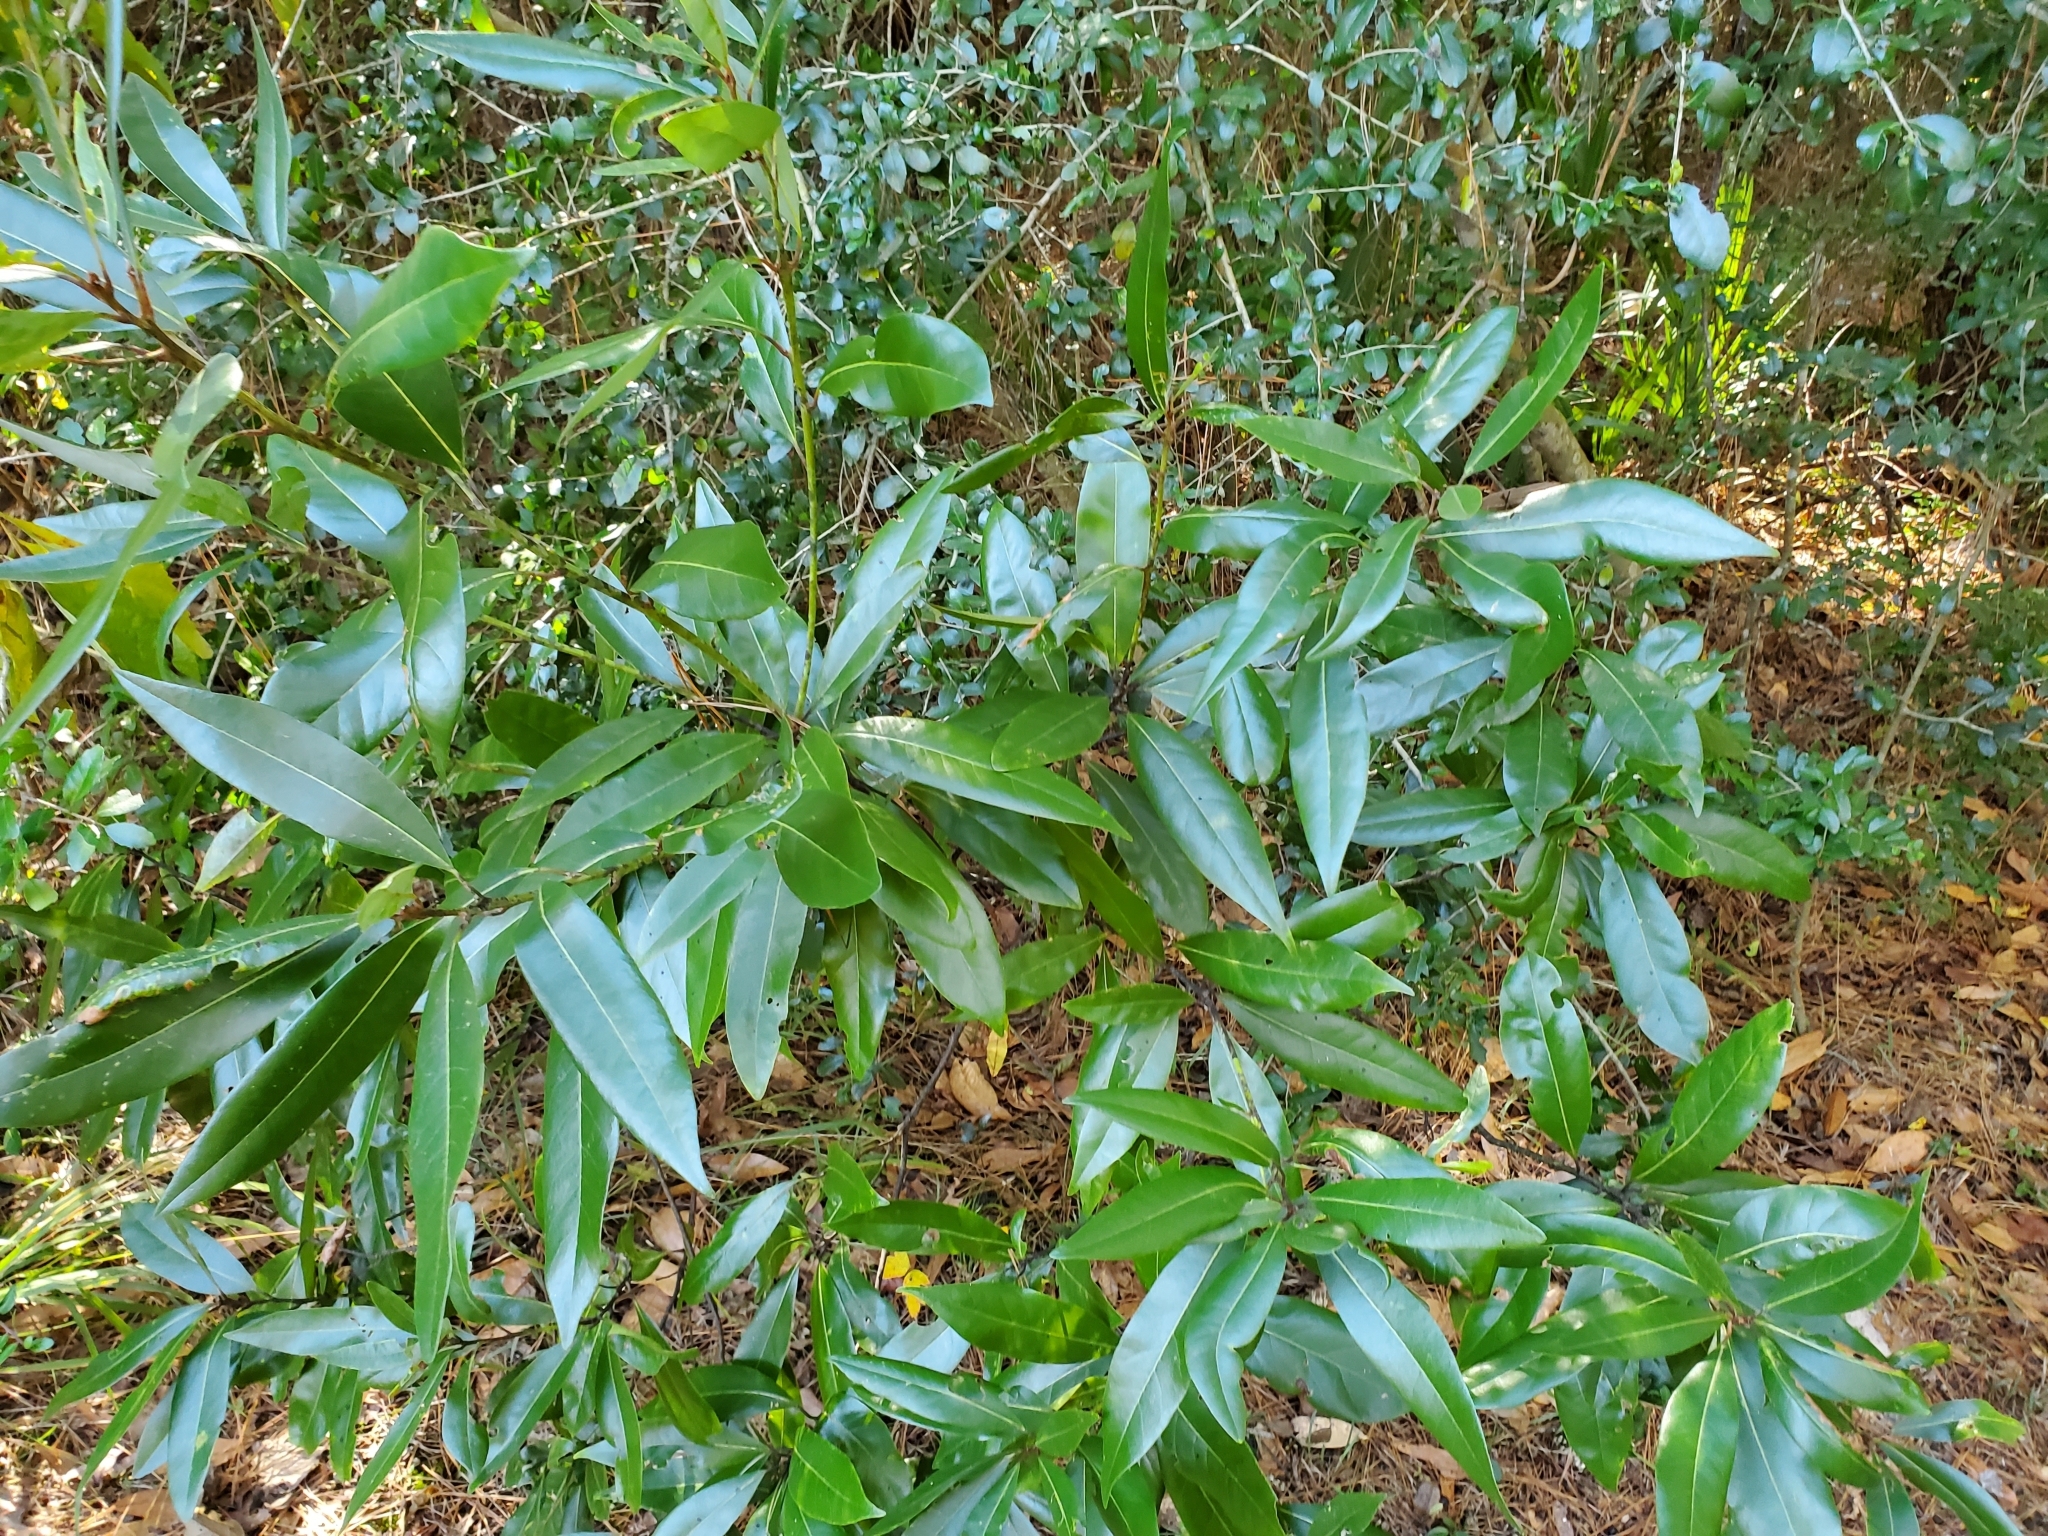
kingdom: Plantae
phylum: Tracheophyta
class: Magnoliopsida
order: Laurales
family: Lauraceae
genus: Persea
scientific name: Persea borbonia
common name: Redbay
